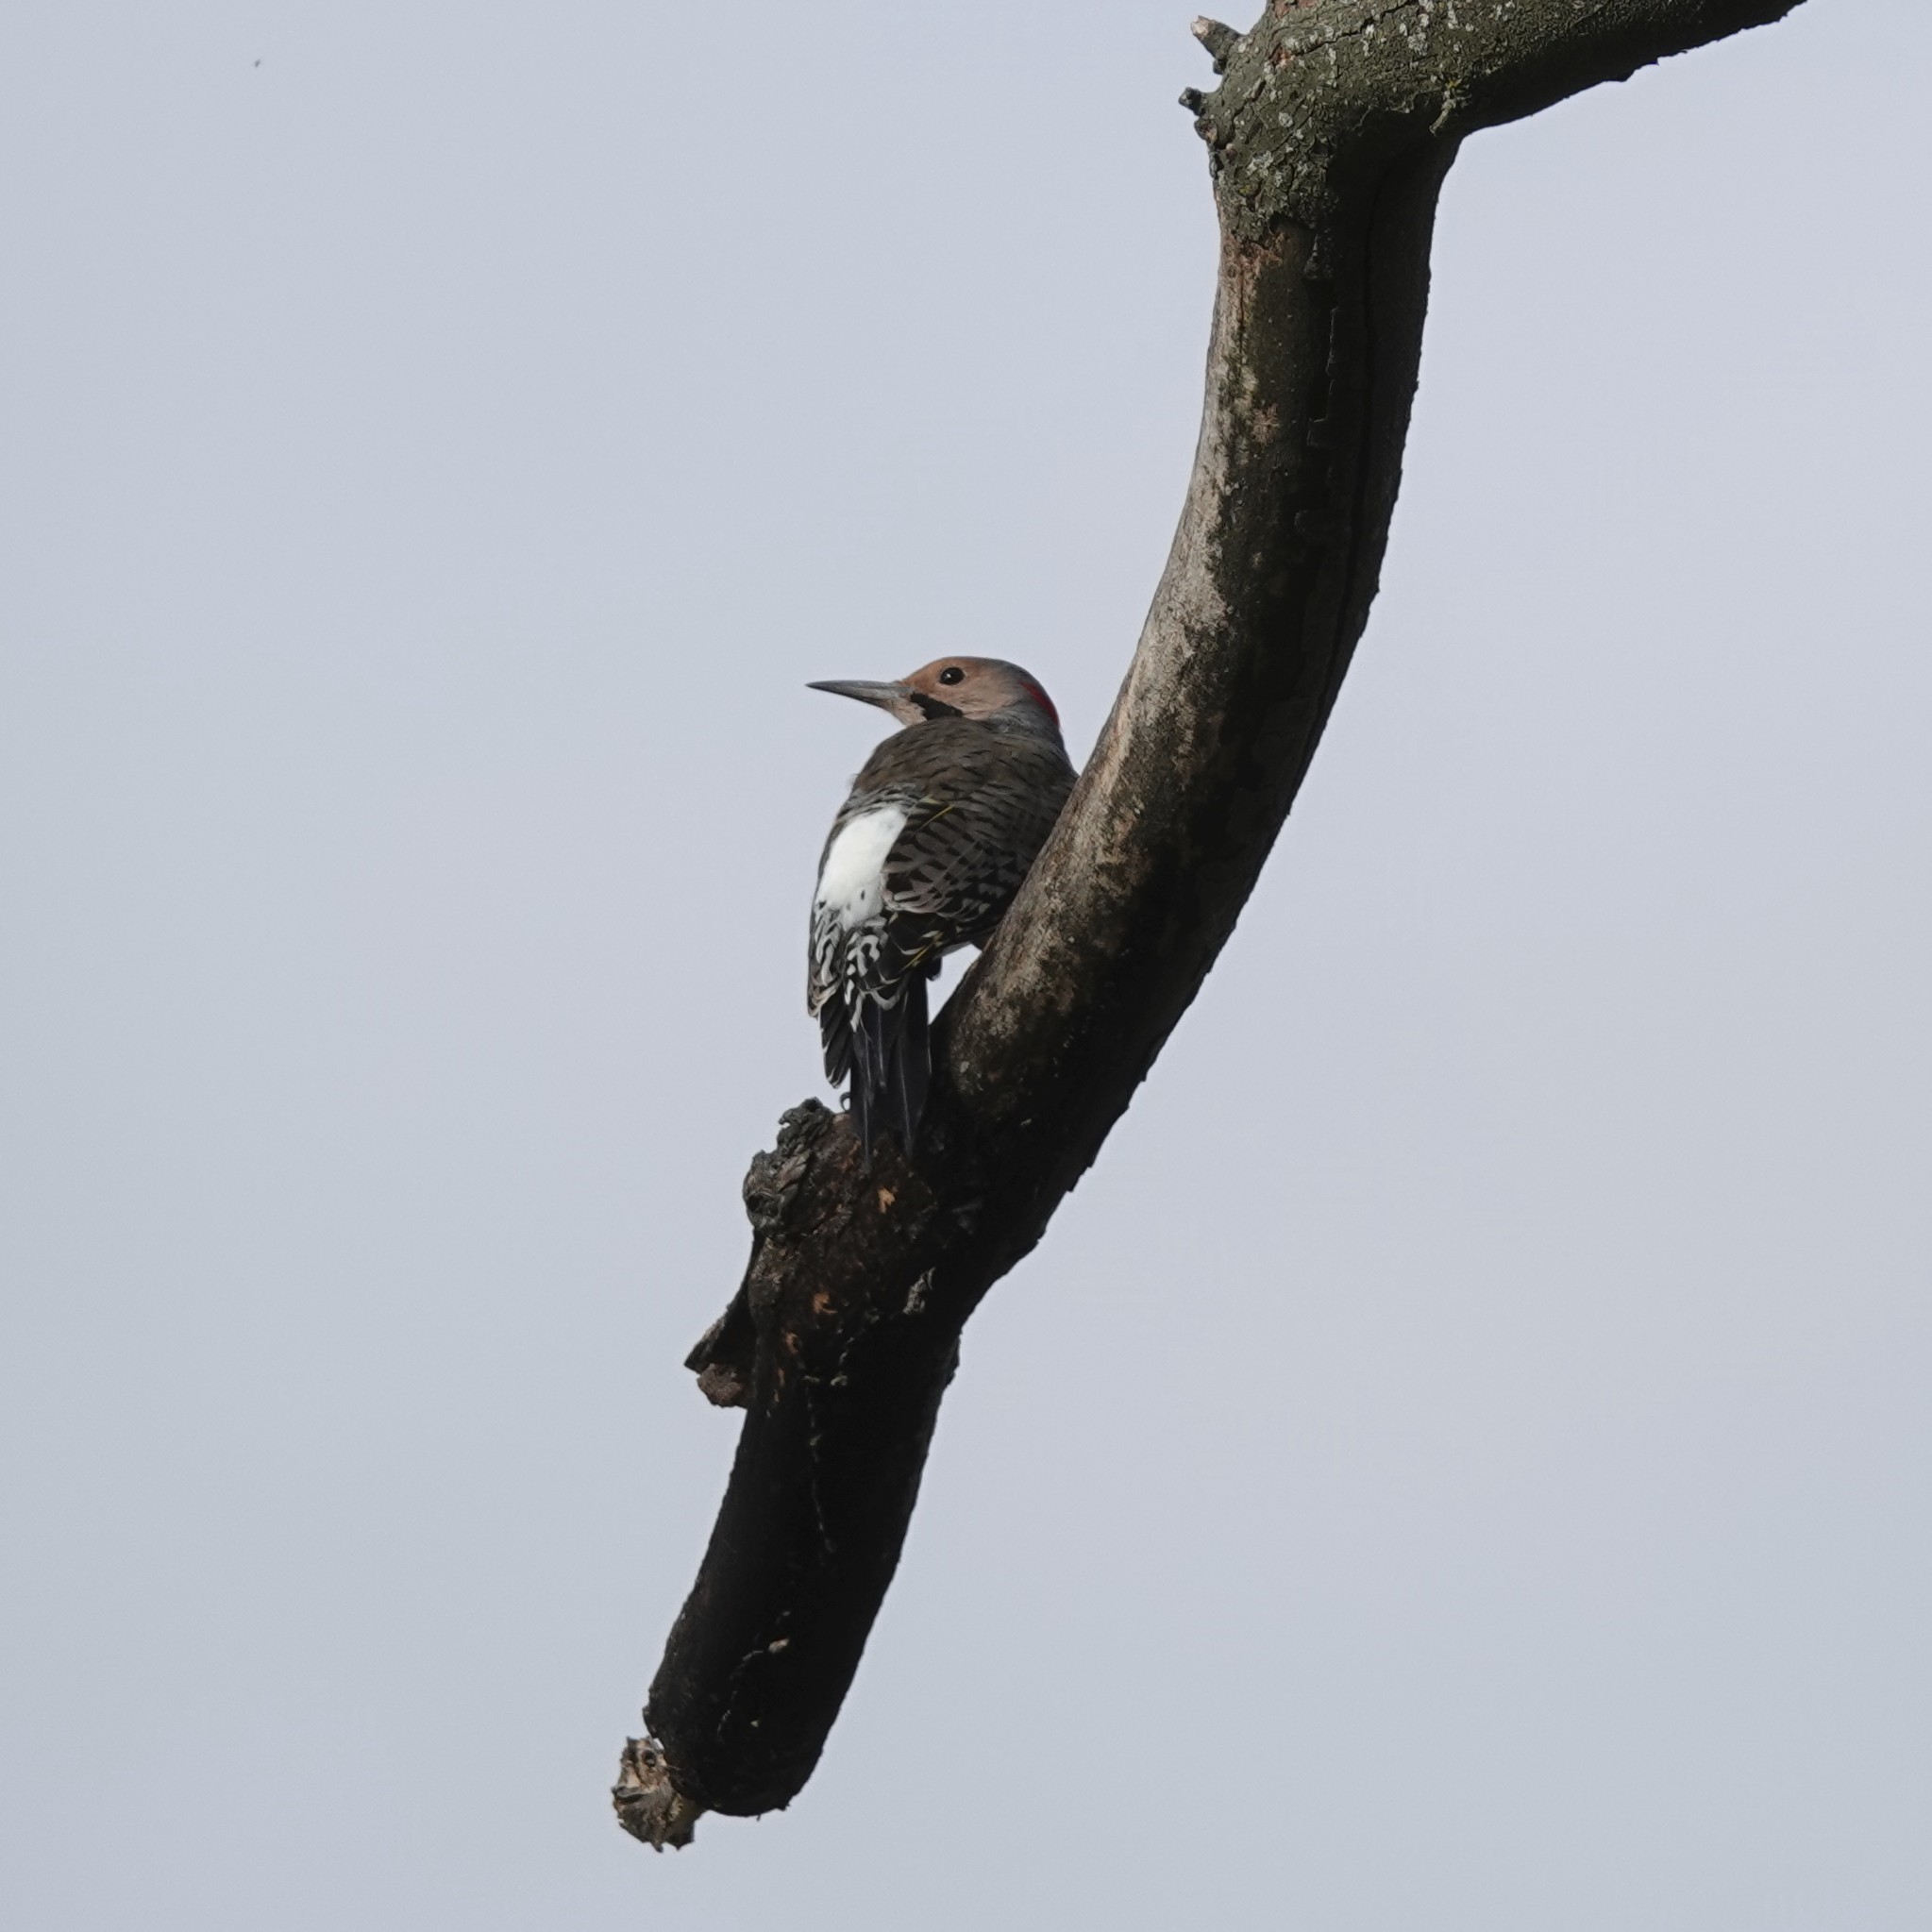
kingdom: Animalia
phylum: Chordata
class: Aves
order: Piciformes
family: Picidae
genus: Colaptes
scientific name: Colaptes auratus
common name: Northern flicker
